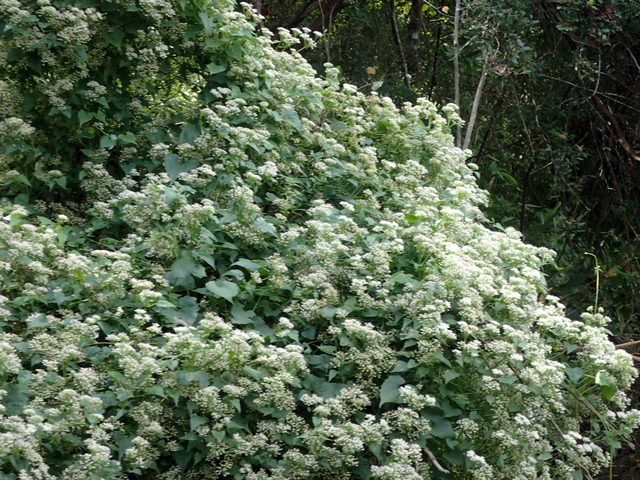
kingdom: Plantae
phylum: Tracheophyta
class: Magnoliopsida
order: Asterales
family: Asteraceae
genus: Mikania
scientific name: Mikania scandens
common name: Climbing hempvine
